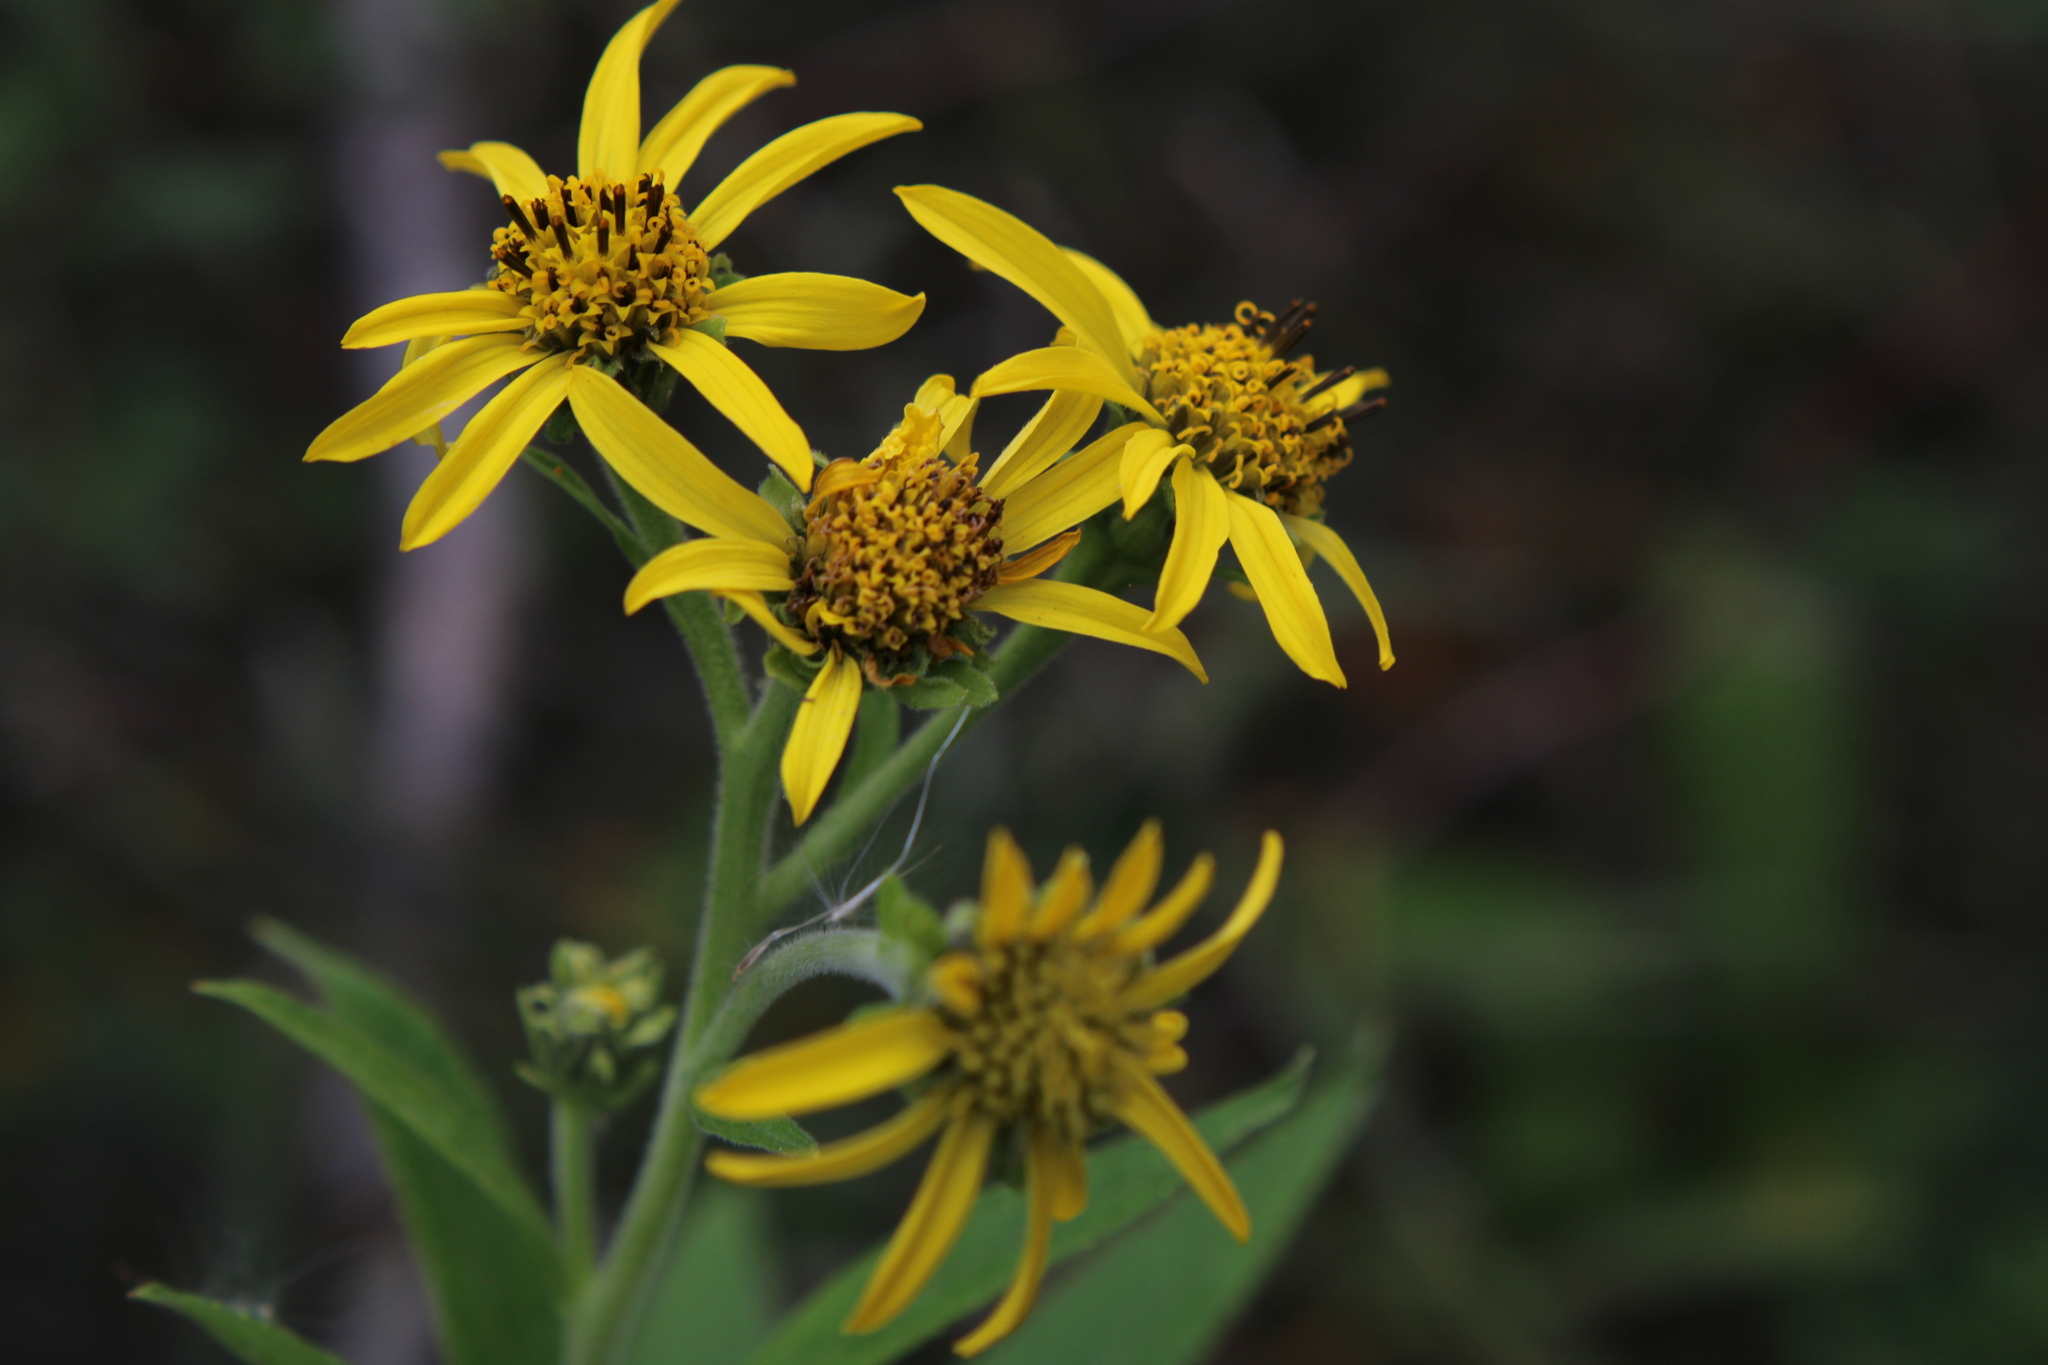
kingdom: Plantae
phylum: Tracheophyta
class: Magnoliopsida
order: Asterales
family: Asteraceae
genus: Verbesina
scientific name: Verbesina subcordata
